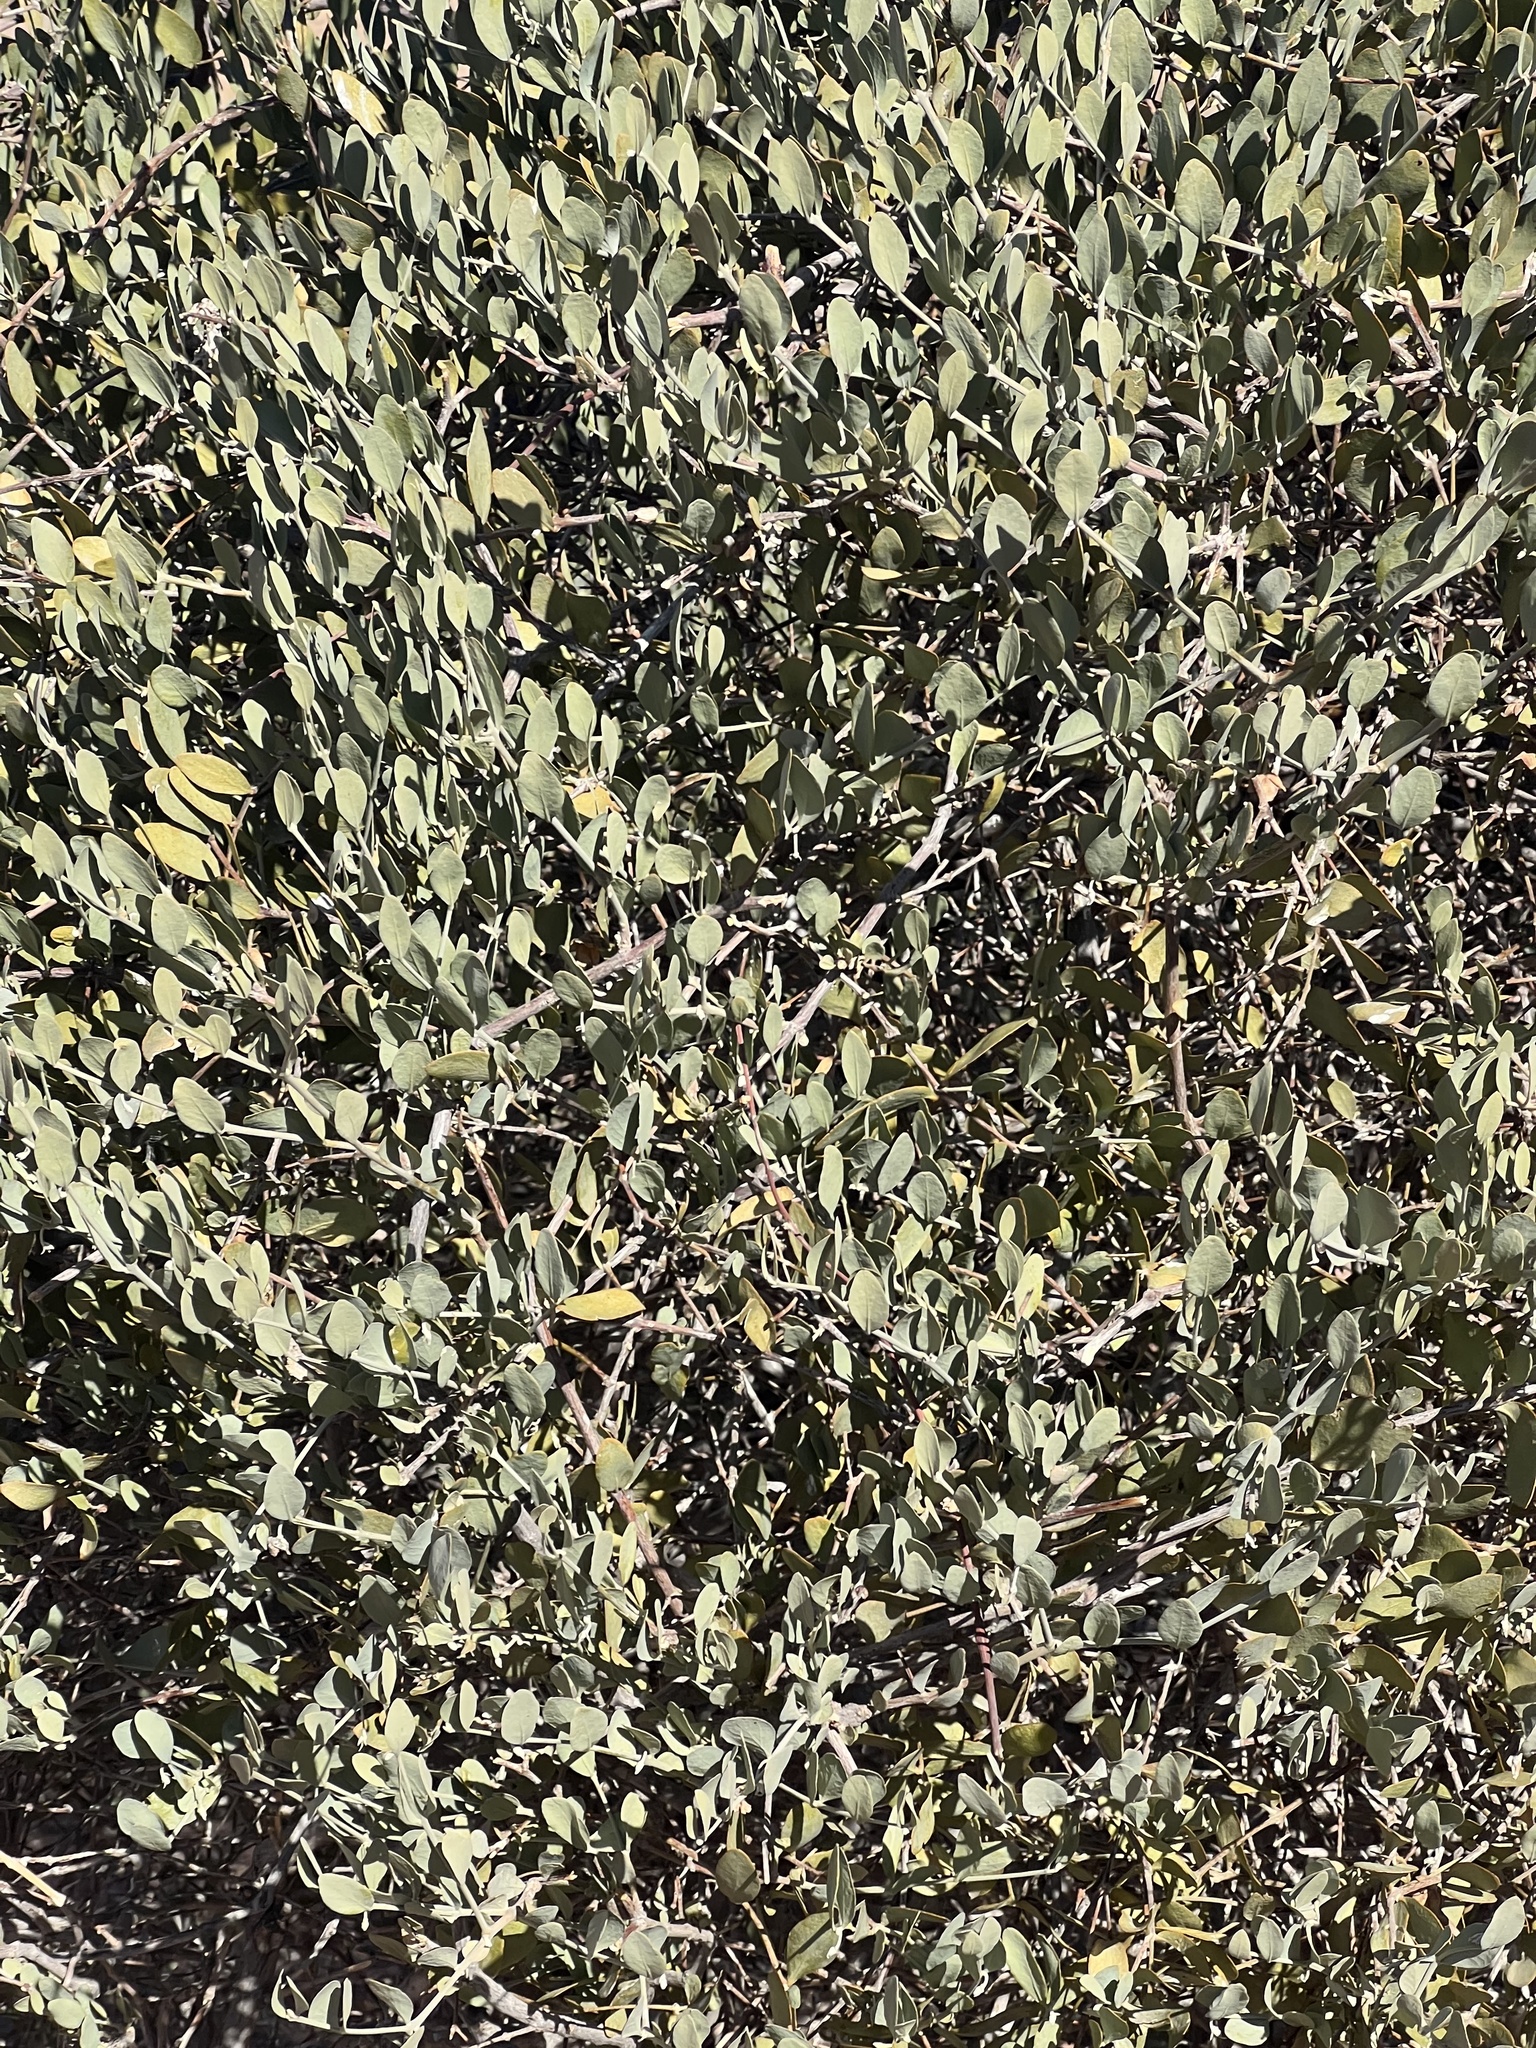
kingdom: Plantae
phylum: Tracheophyta
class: Magnoliopsida
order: Caryophyllales
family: Simmondsiaceae
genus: Simmondsia
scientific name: Simmondsia chinensis
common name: Jojoba
